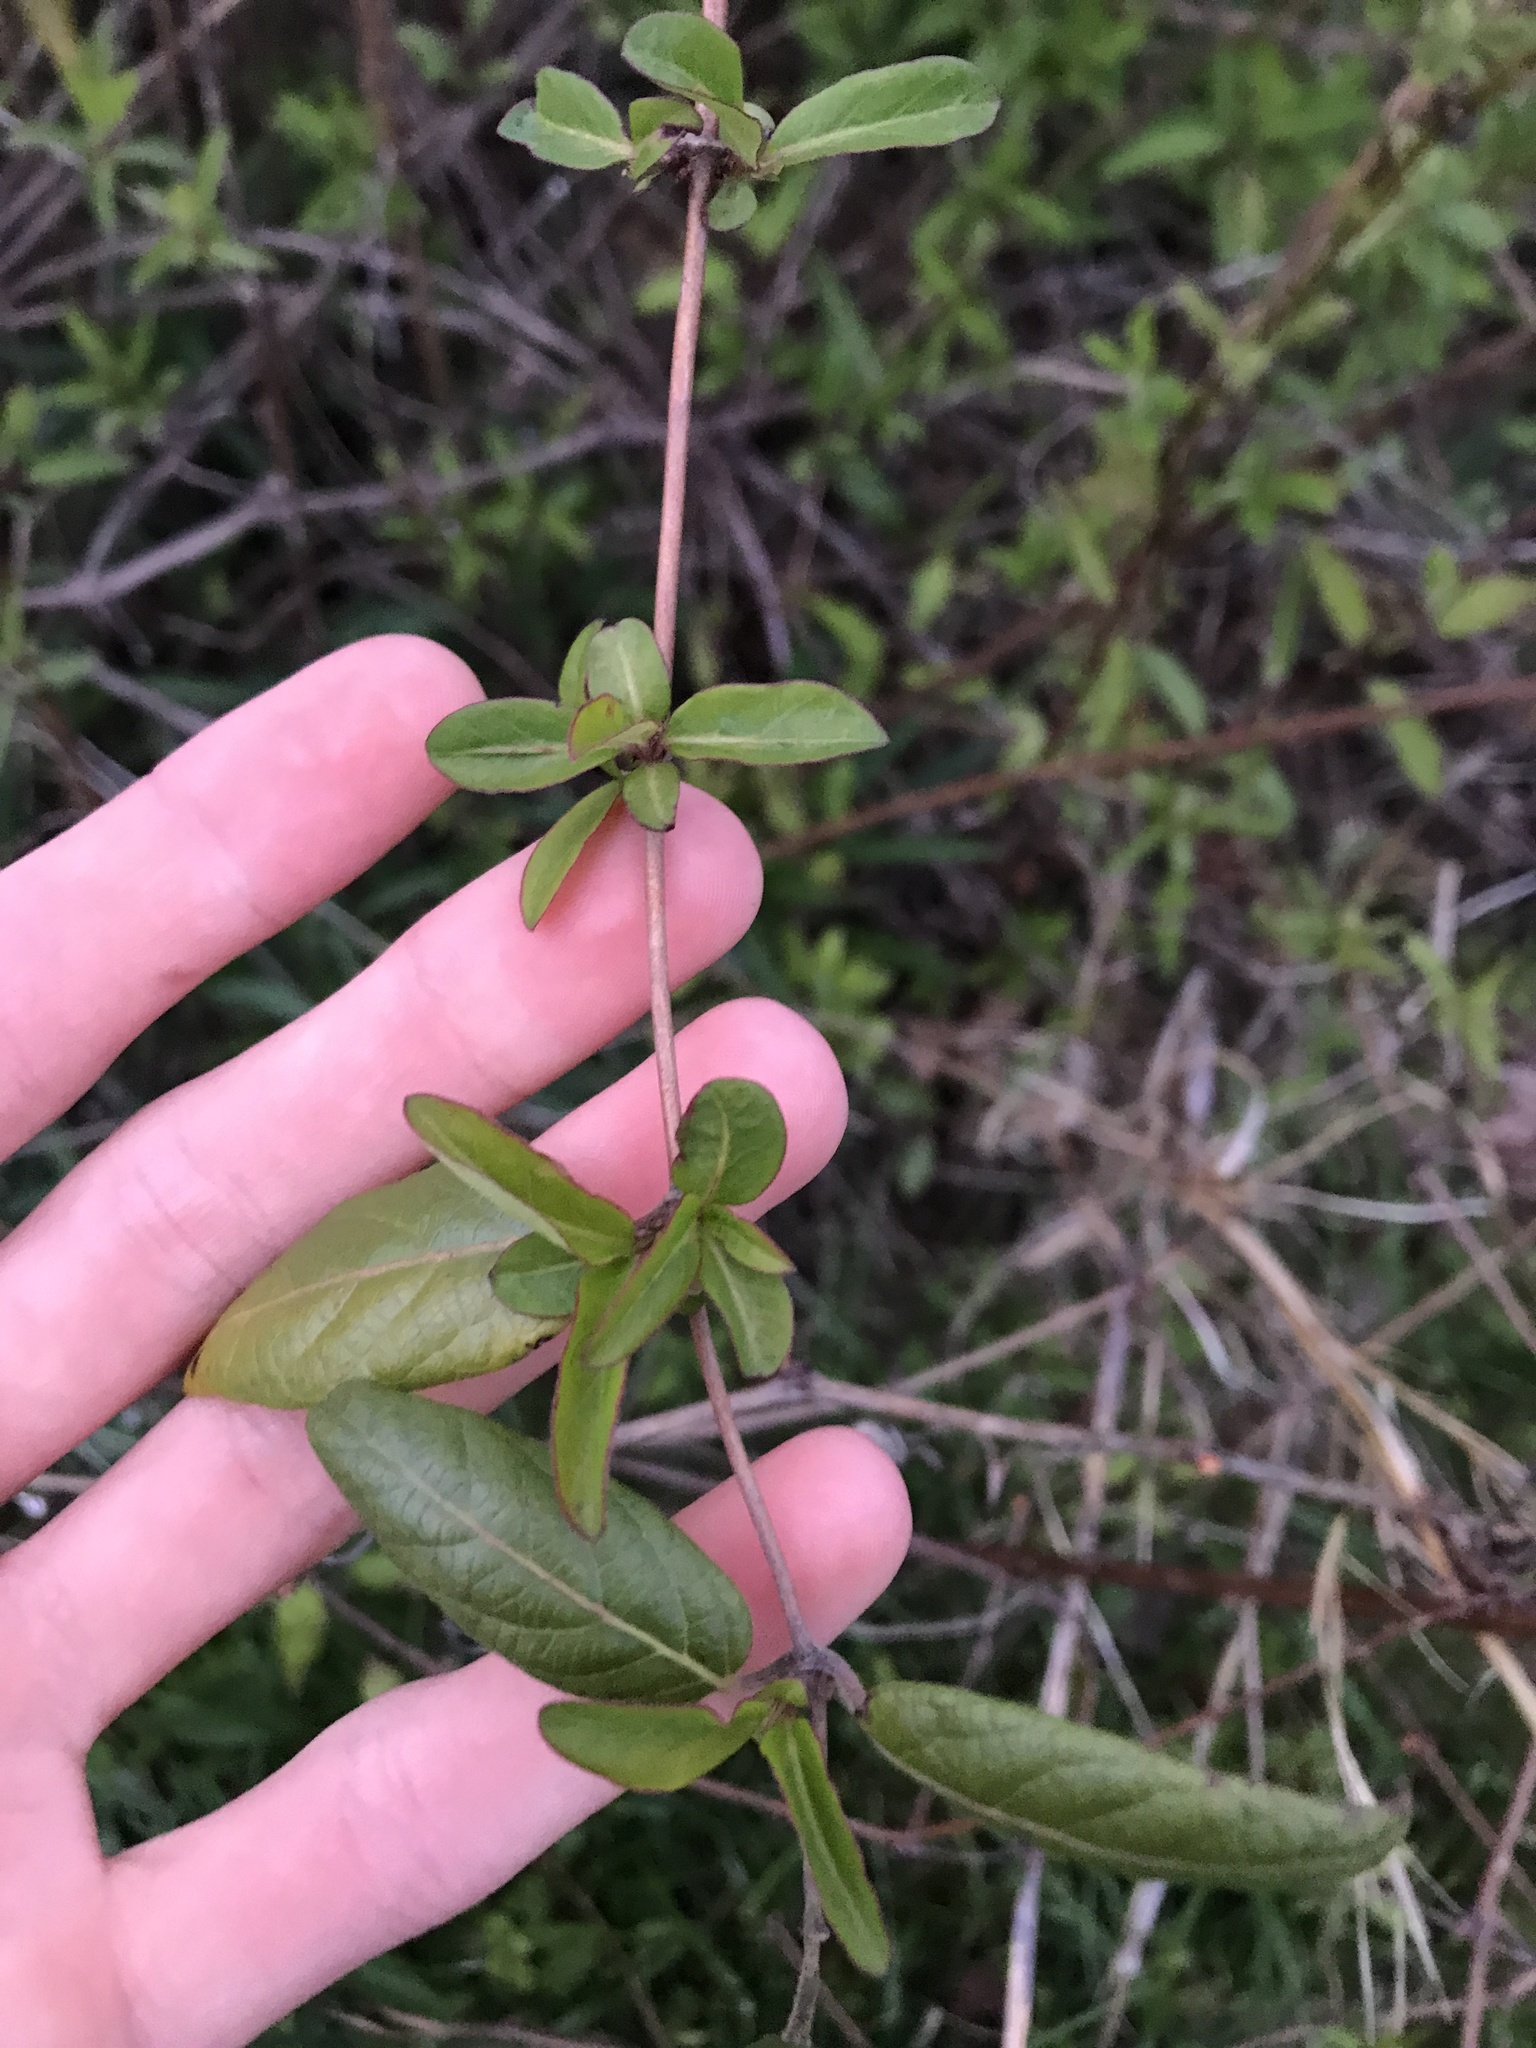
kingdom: Plantae
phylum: Tracheophyta
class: Magnoliopsida
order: Dipsacales
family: Caprifoliaceae
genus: Lonicera
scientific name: Lonicera japonica
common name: Japanese honeysuckle
